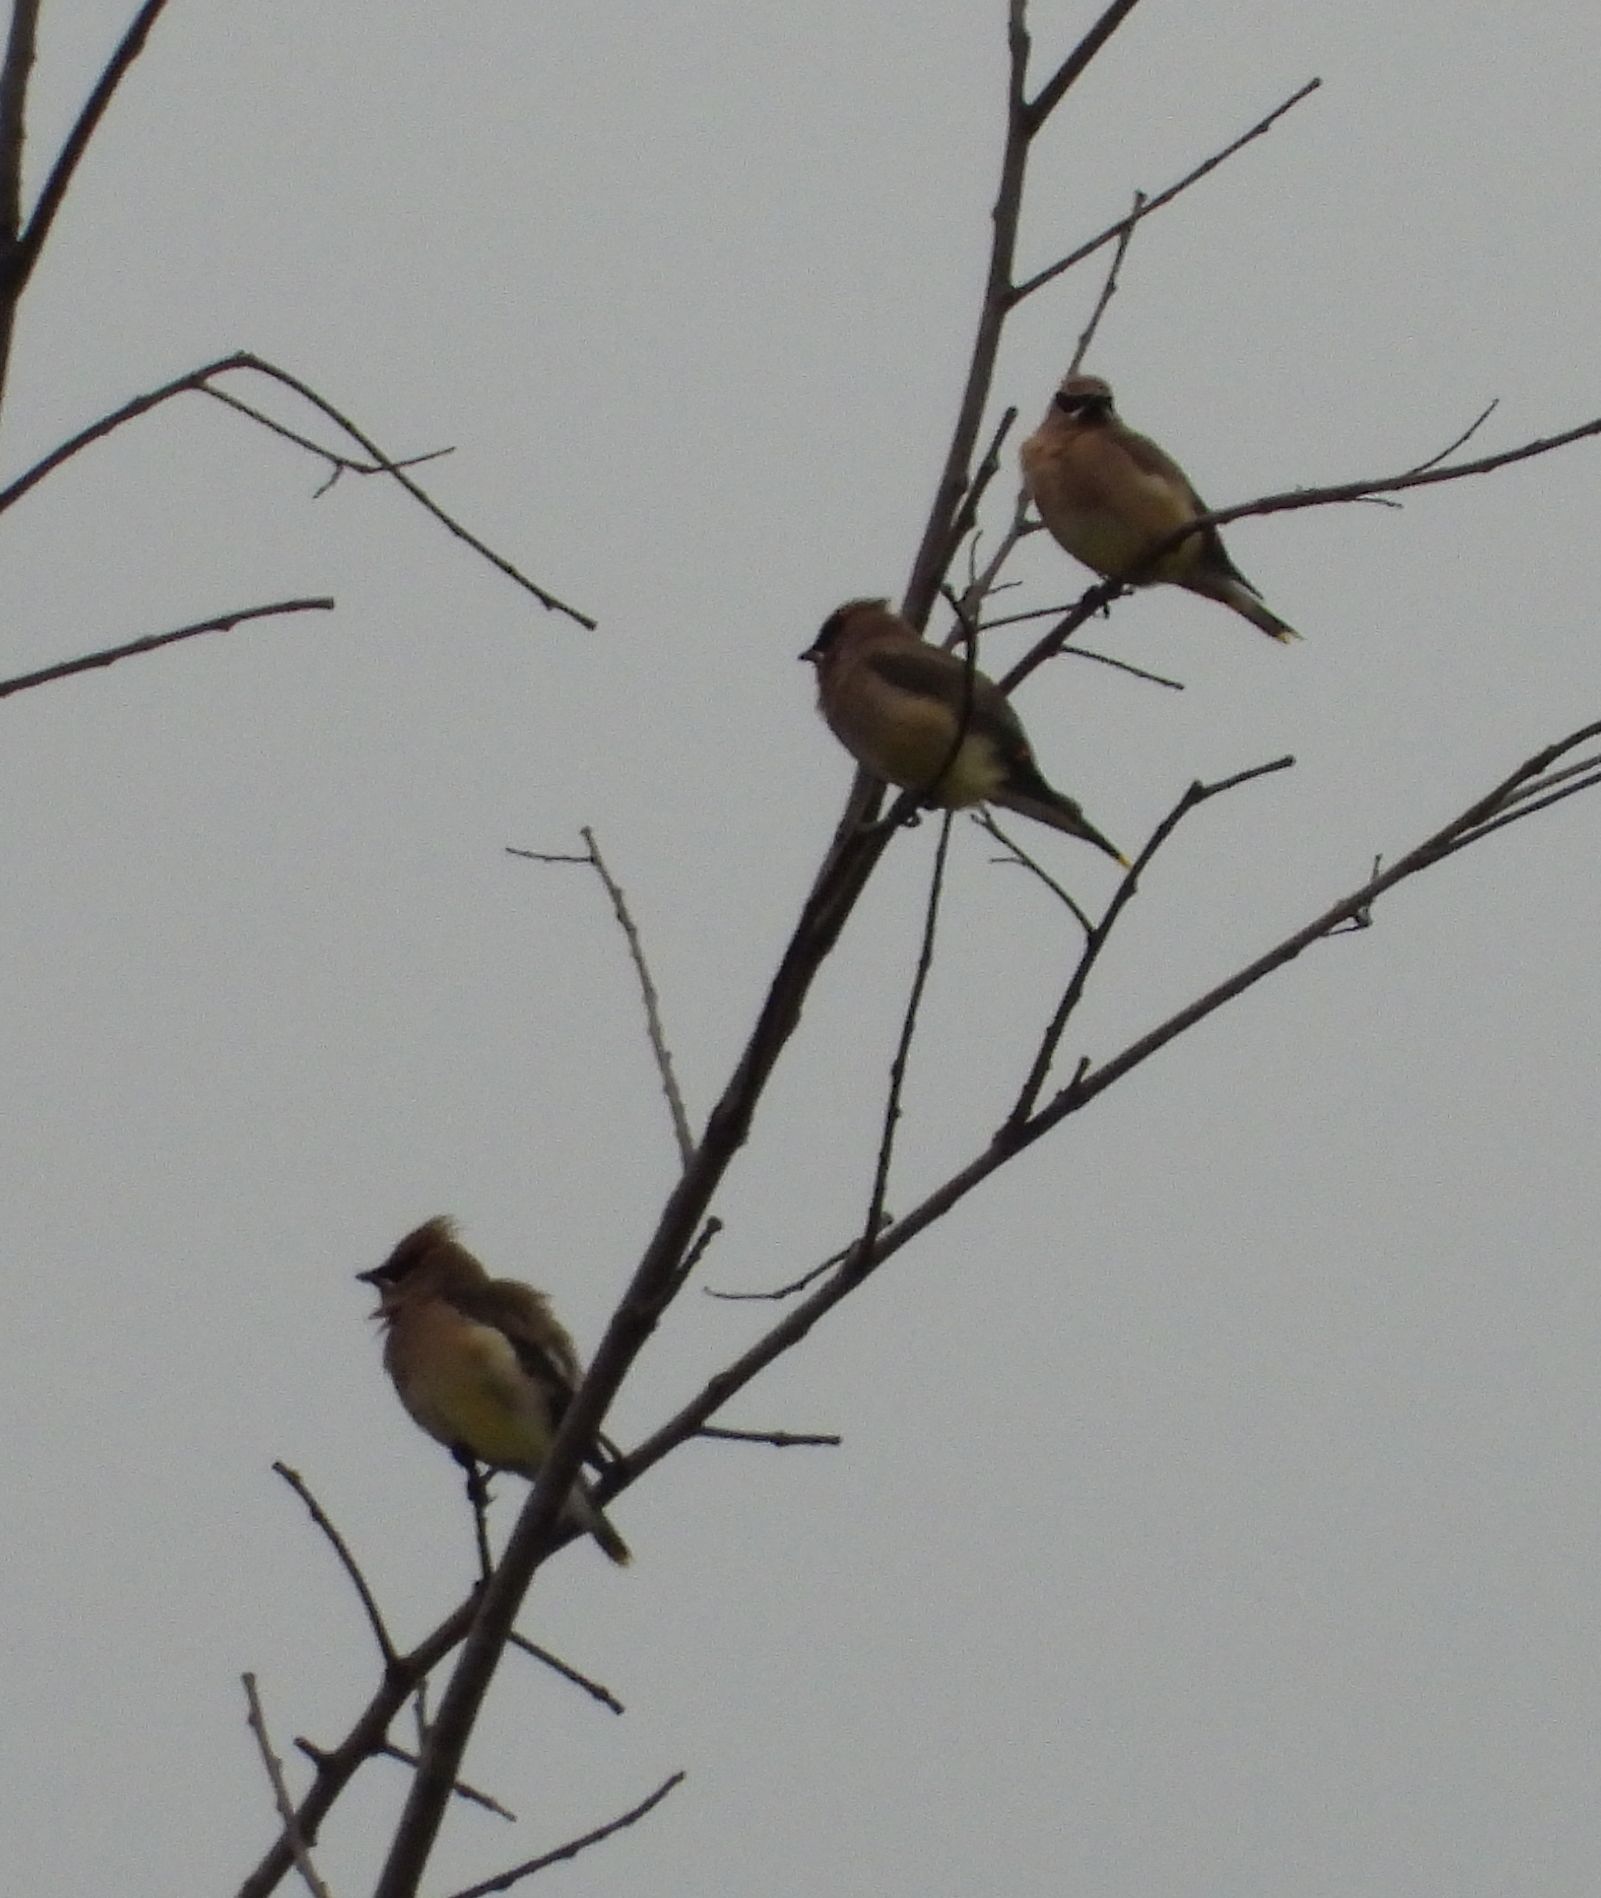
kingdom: Animalia
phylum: Chordata
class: Aves
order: Passeriformes
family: Bombycillidae
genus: Bombycilla
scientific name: Bombycilla cedrorum
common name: Cedar waxwing
